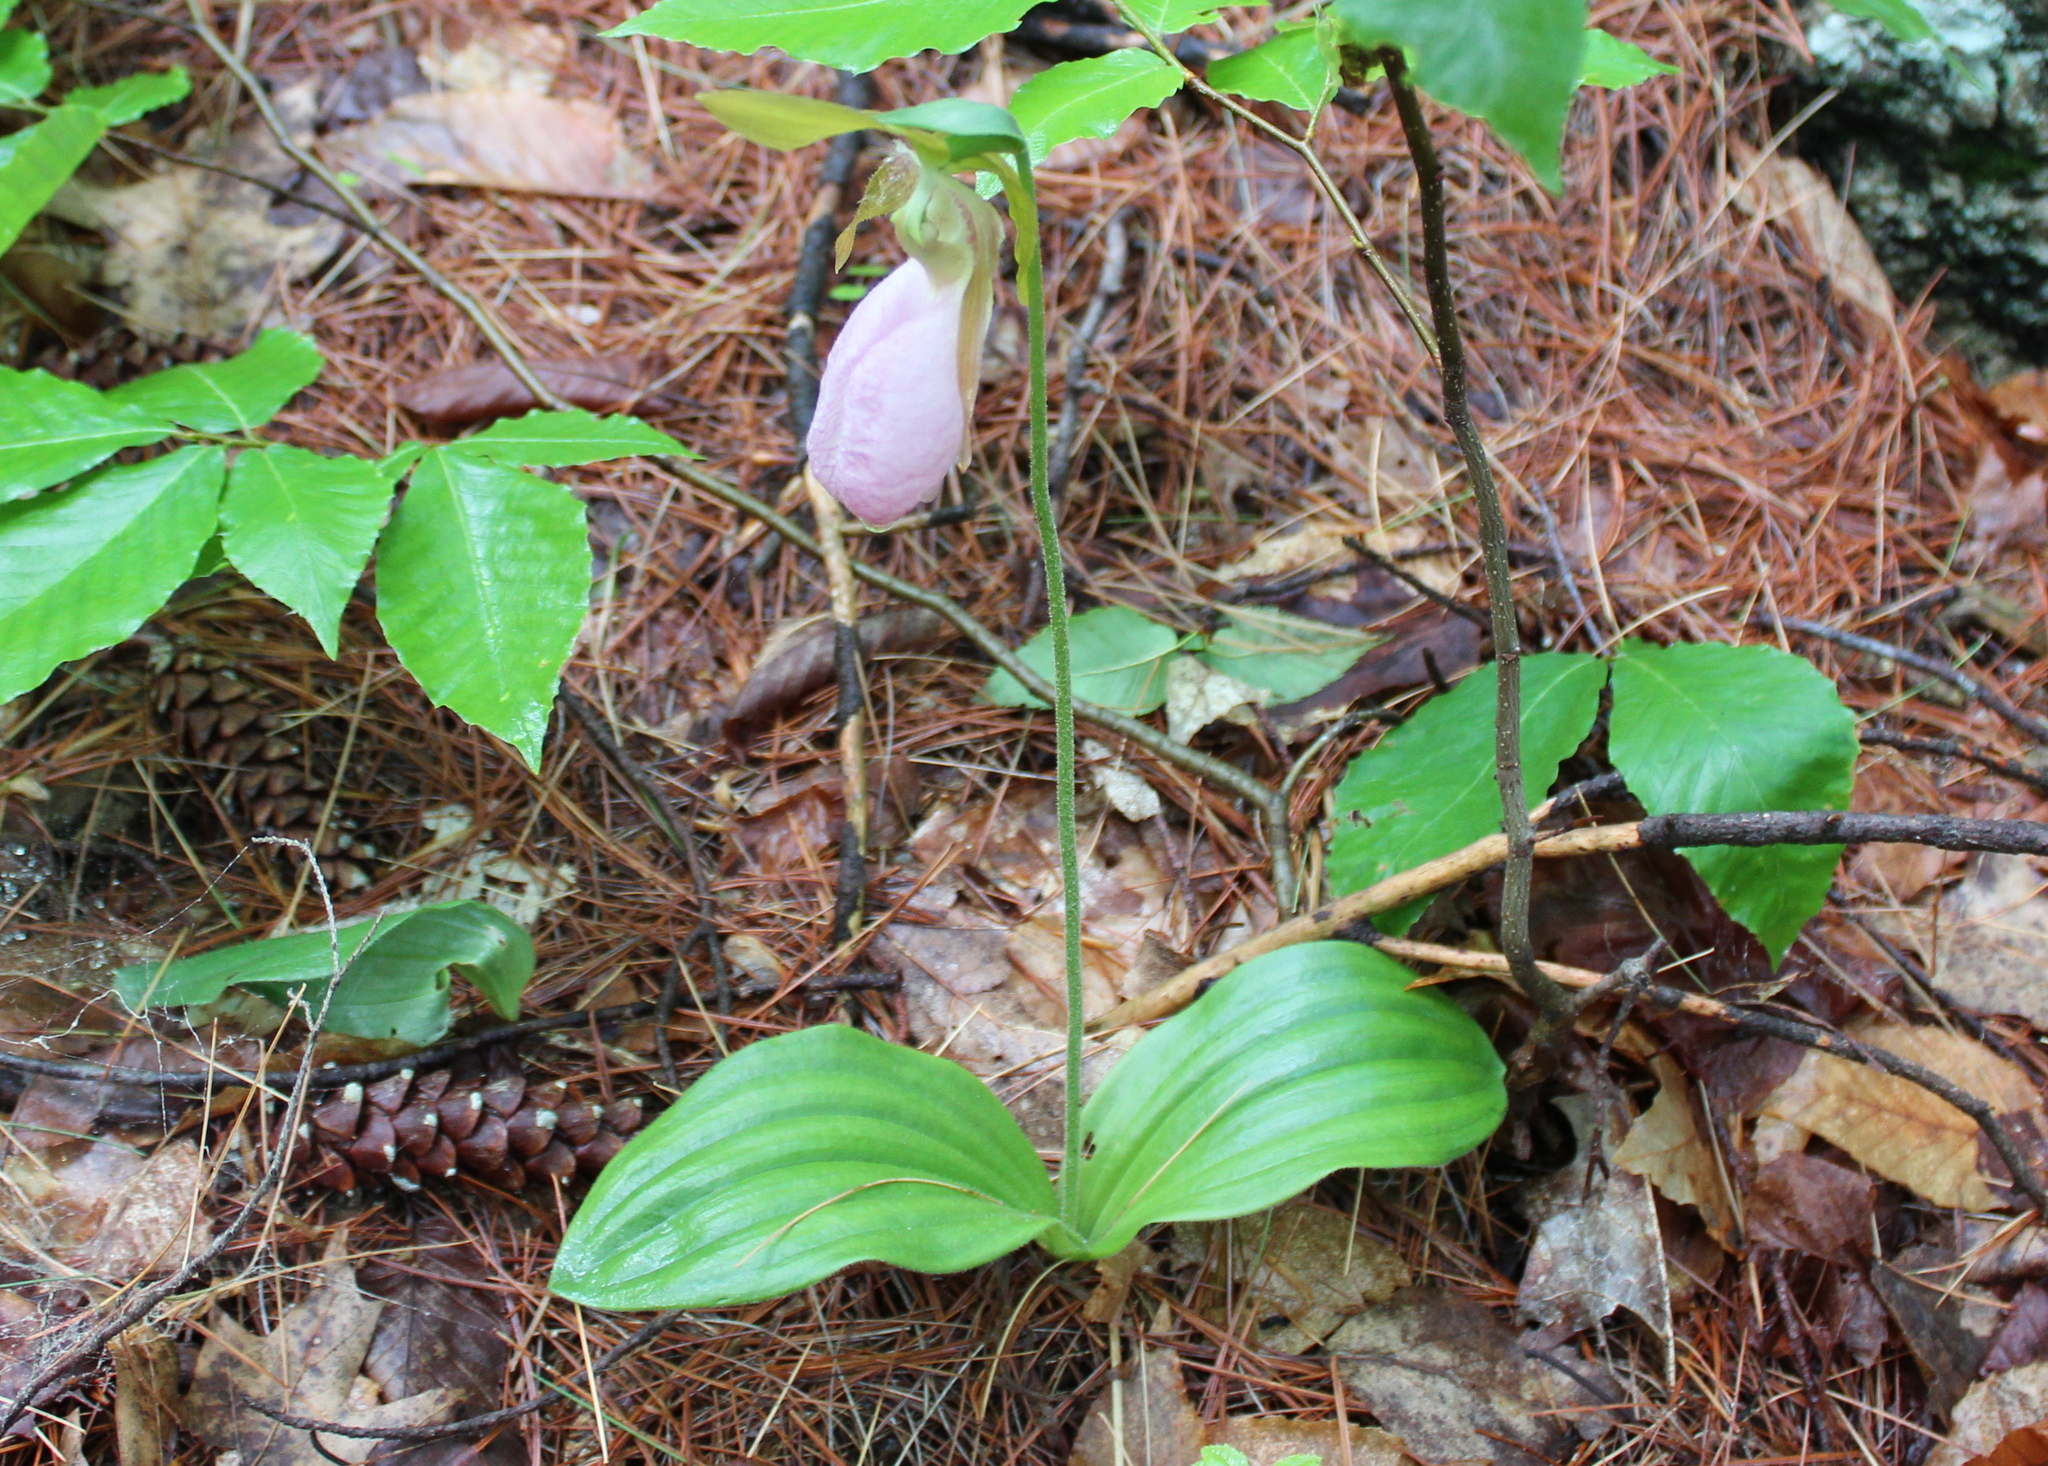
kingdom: Plantae
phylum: Tracheophyta
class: Liliopsida
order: Asparagales
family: Orchidaceae
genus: Cypripedium
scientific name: Cypripedium acaule
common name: Pink lady's-slipper
